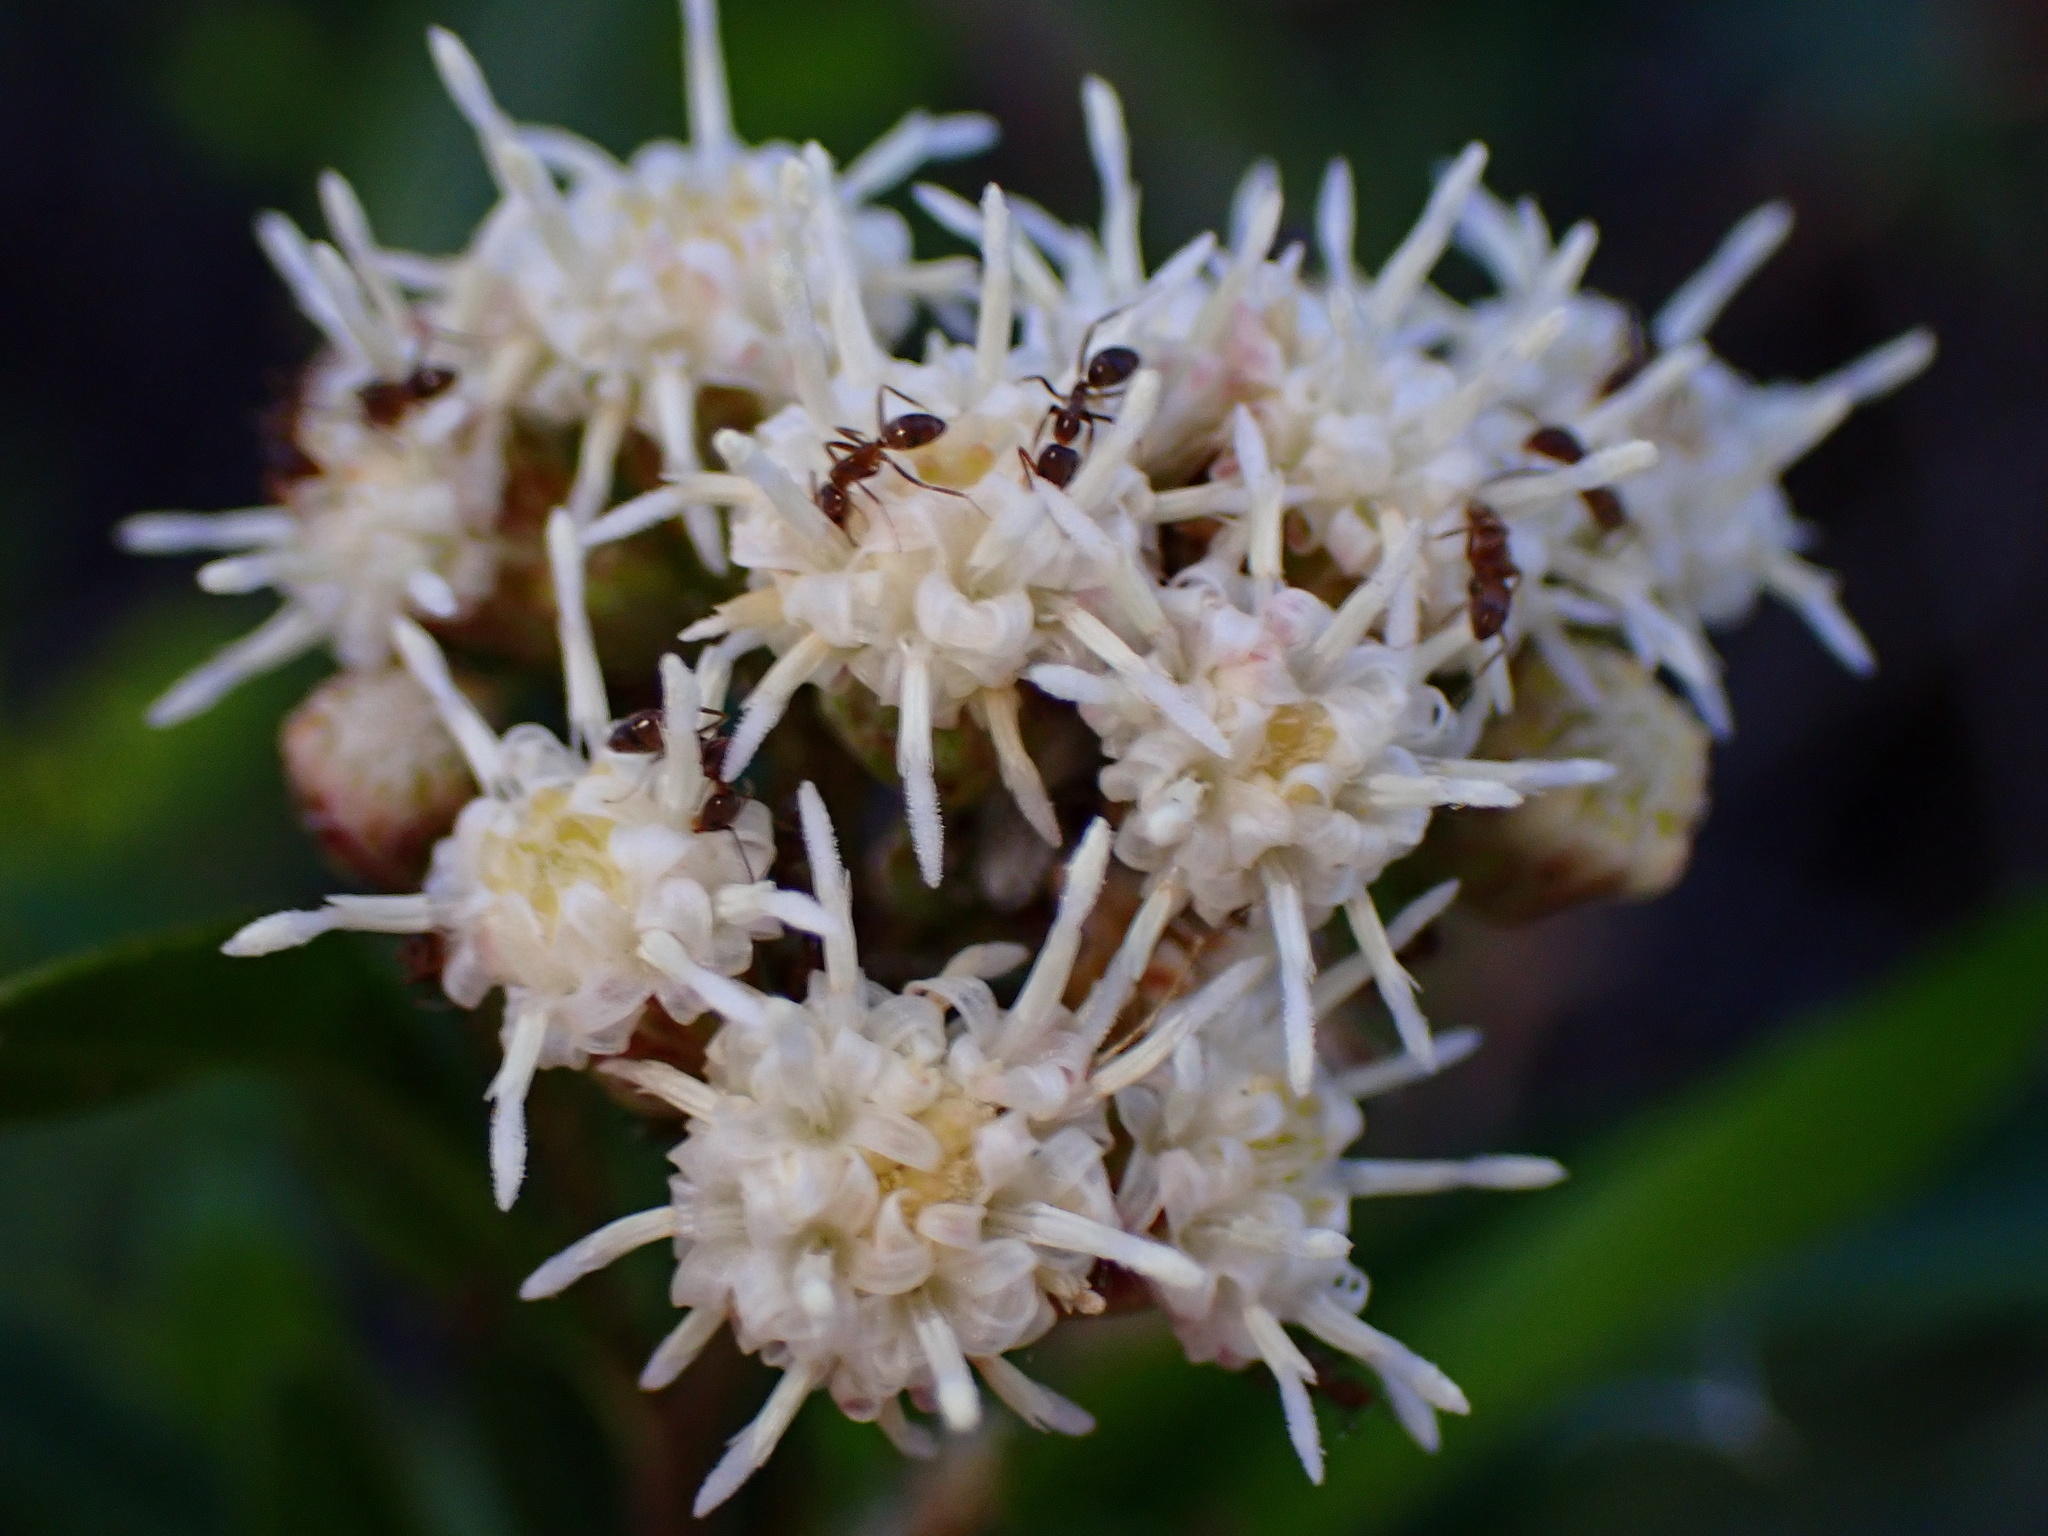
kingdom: Plantae
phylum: Tracheophyta
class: Magnoliopsida
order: Asterales
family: Asteraceae
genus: Baccharis
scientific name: Baccharis salicifolia
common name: Sticky baccharis
